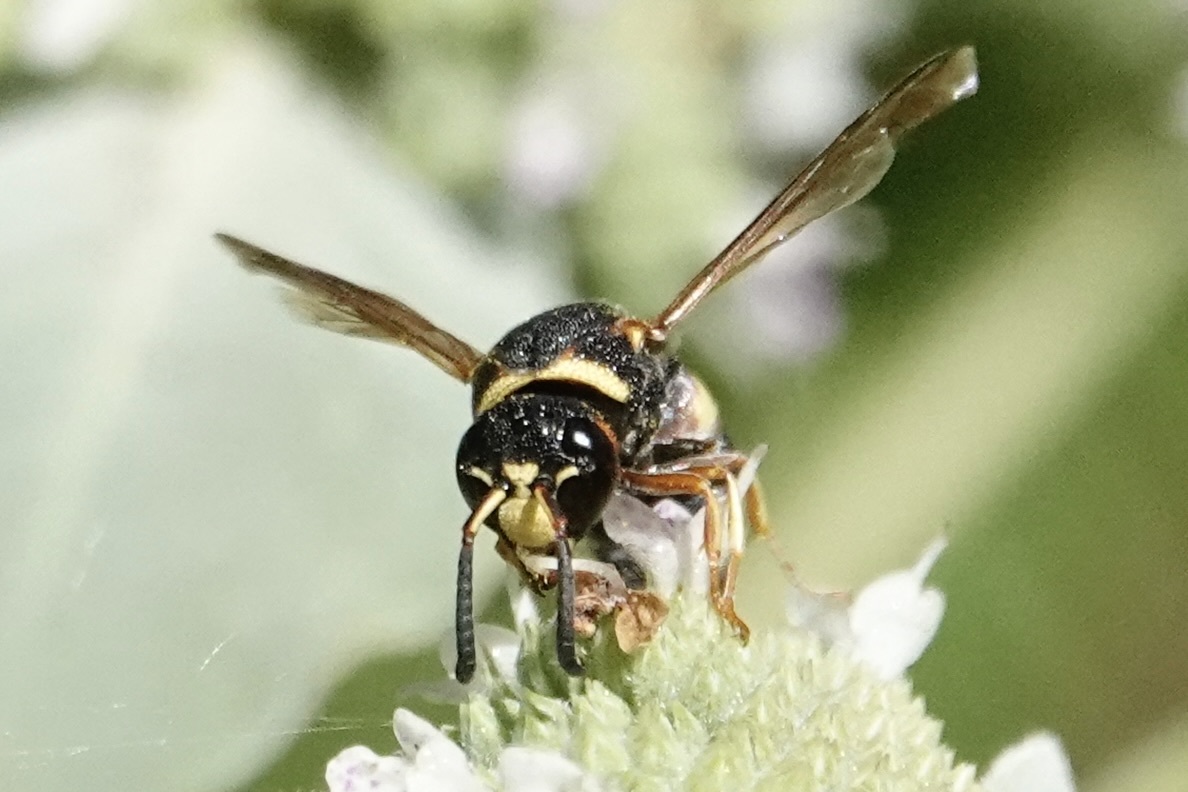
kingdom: Animalia
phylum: Arthropoda
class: Insecta
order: Hymenoptera
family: Eumenidae
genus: Euodynerus
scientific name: Euodynerus hidalgo
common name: Wasp
